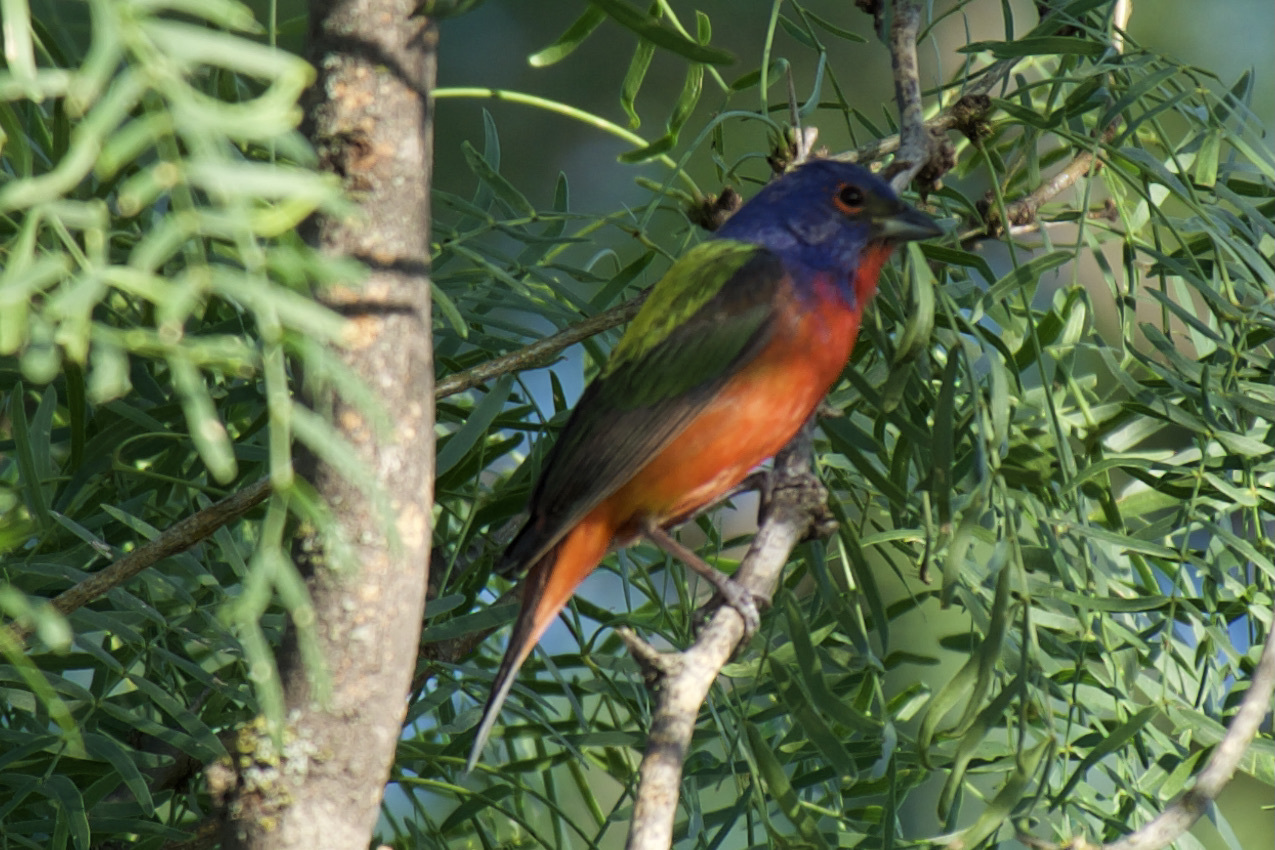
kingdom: Animalia
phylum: Chordata
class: Aves
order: Passeriformes
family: Cardinalidae
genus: Passerina
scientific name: Passerina ciris
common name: Painted bunting
